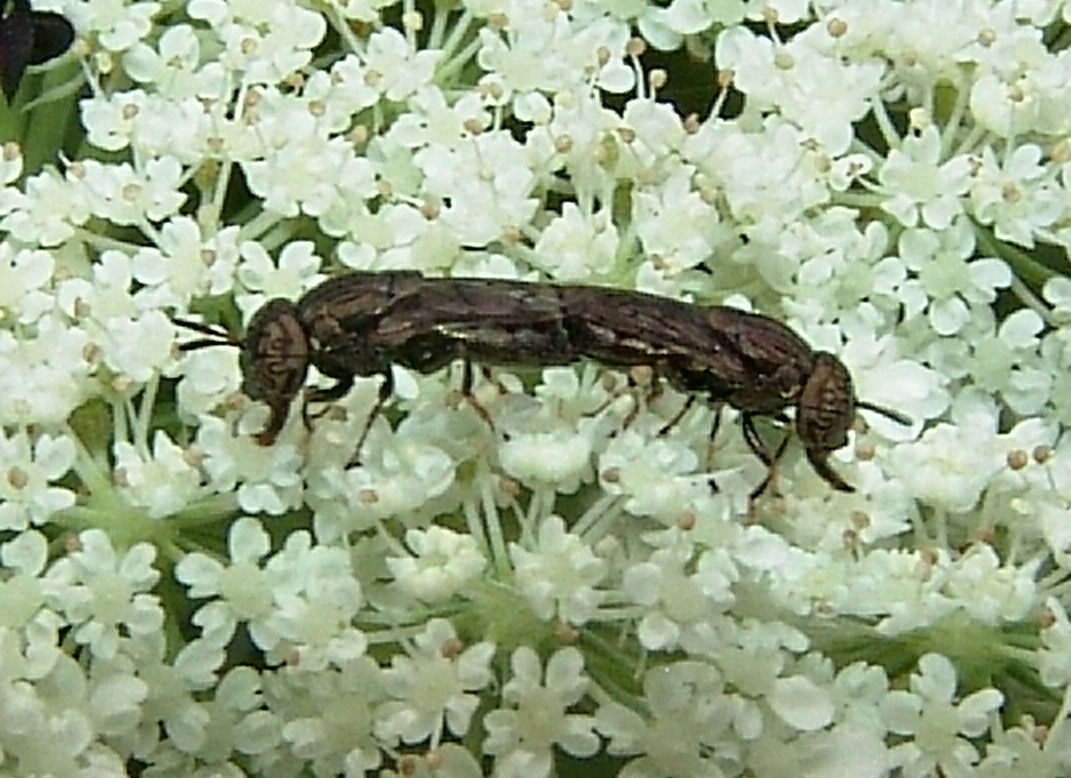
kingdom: Animalia
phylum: Arthropoda
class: Insecta
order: Diptera
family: Syrphidae
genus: Orthonevra
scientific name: Orthonevra nitida
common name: Wavy mucksucker
